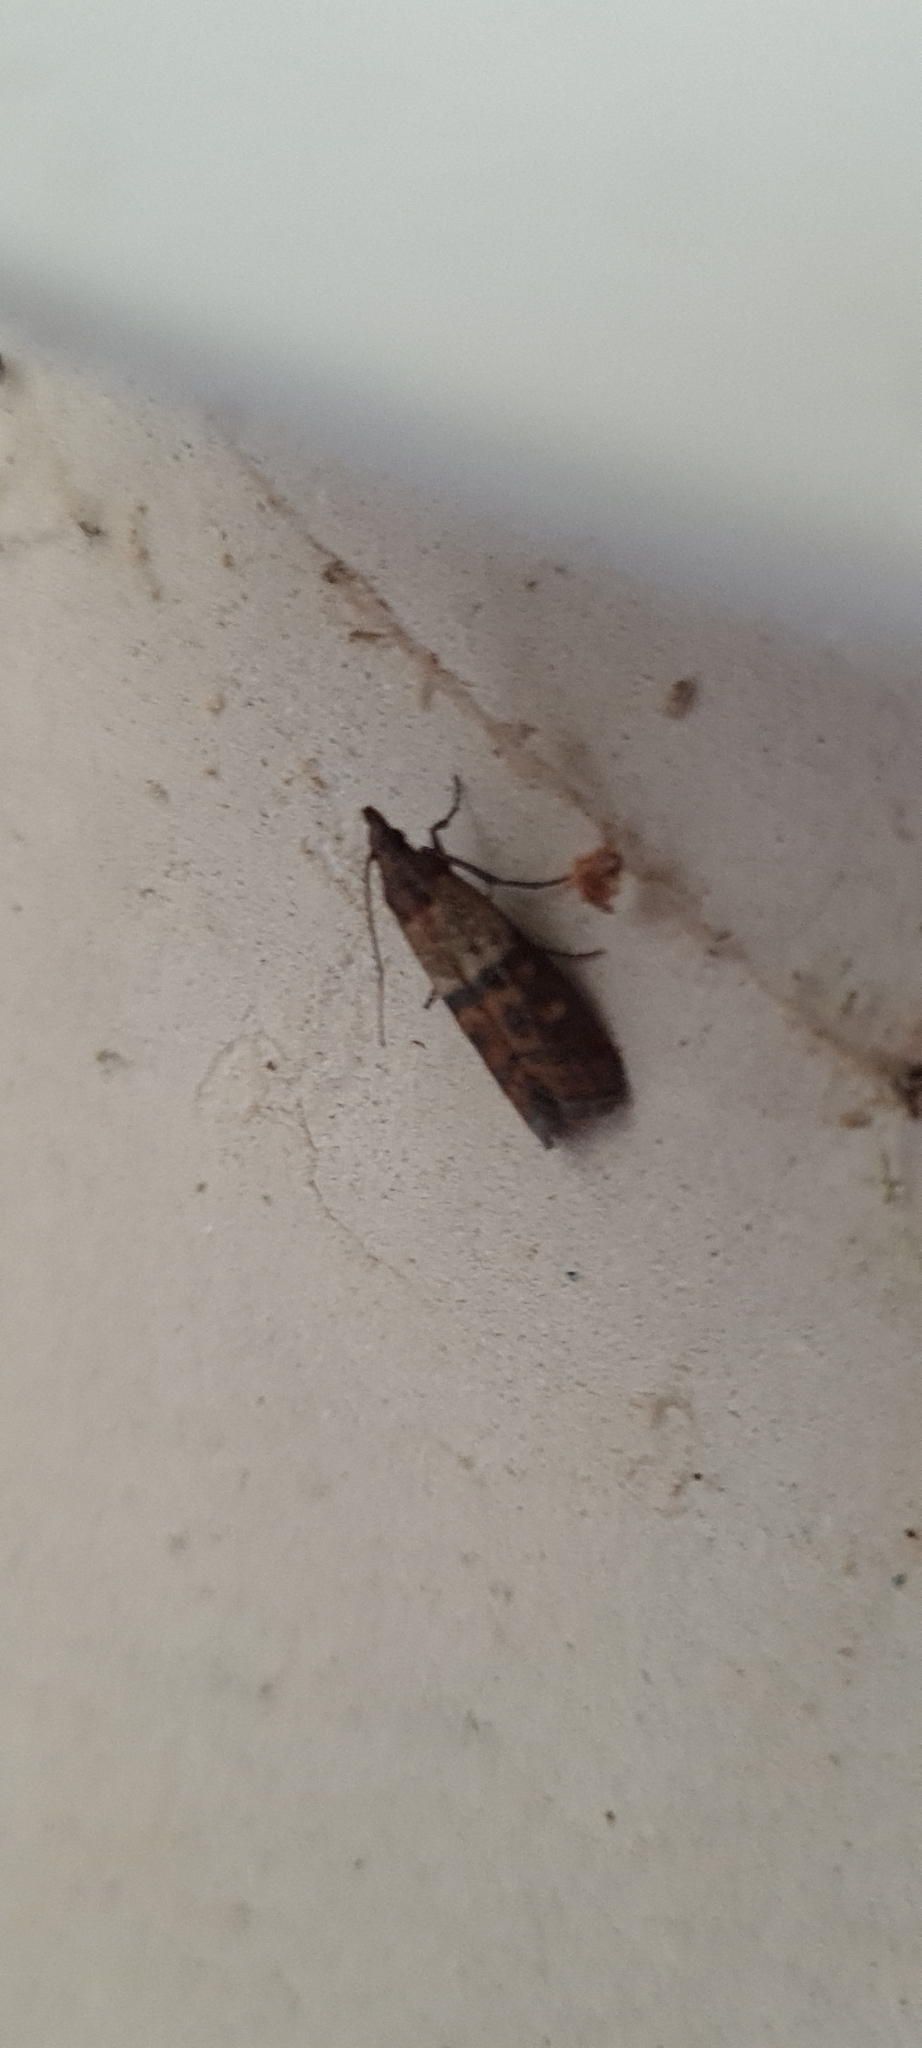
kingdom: Animalia
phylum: Arthropoda
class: Insecta
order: Lepidoptera
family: Pyralidae
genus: Plodia
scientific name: Plodia interpunctella
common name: Indian meal moth
